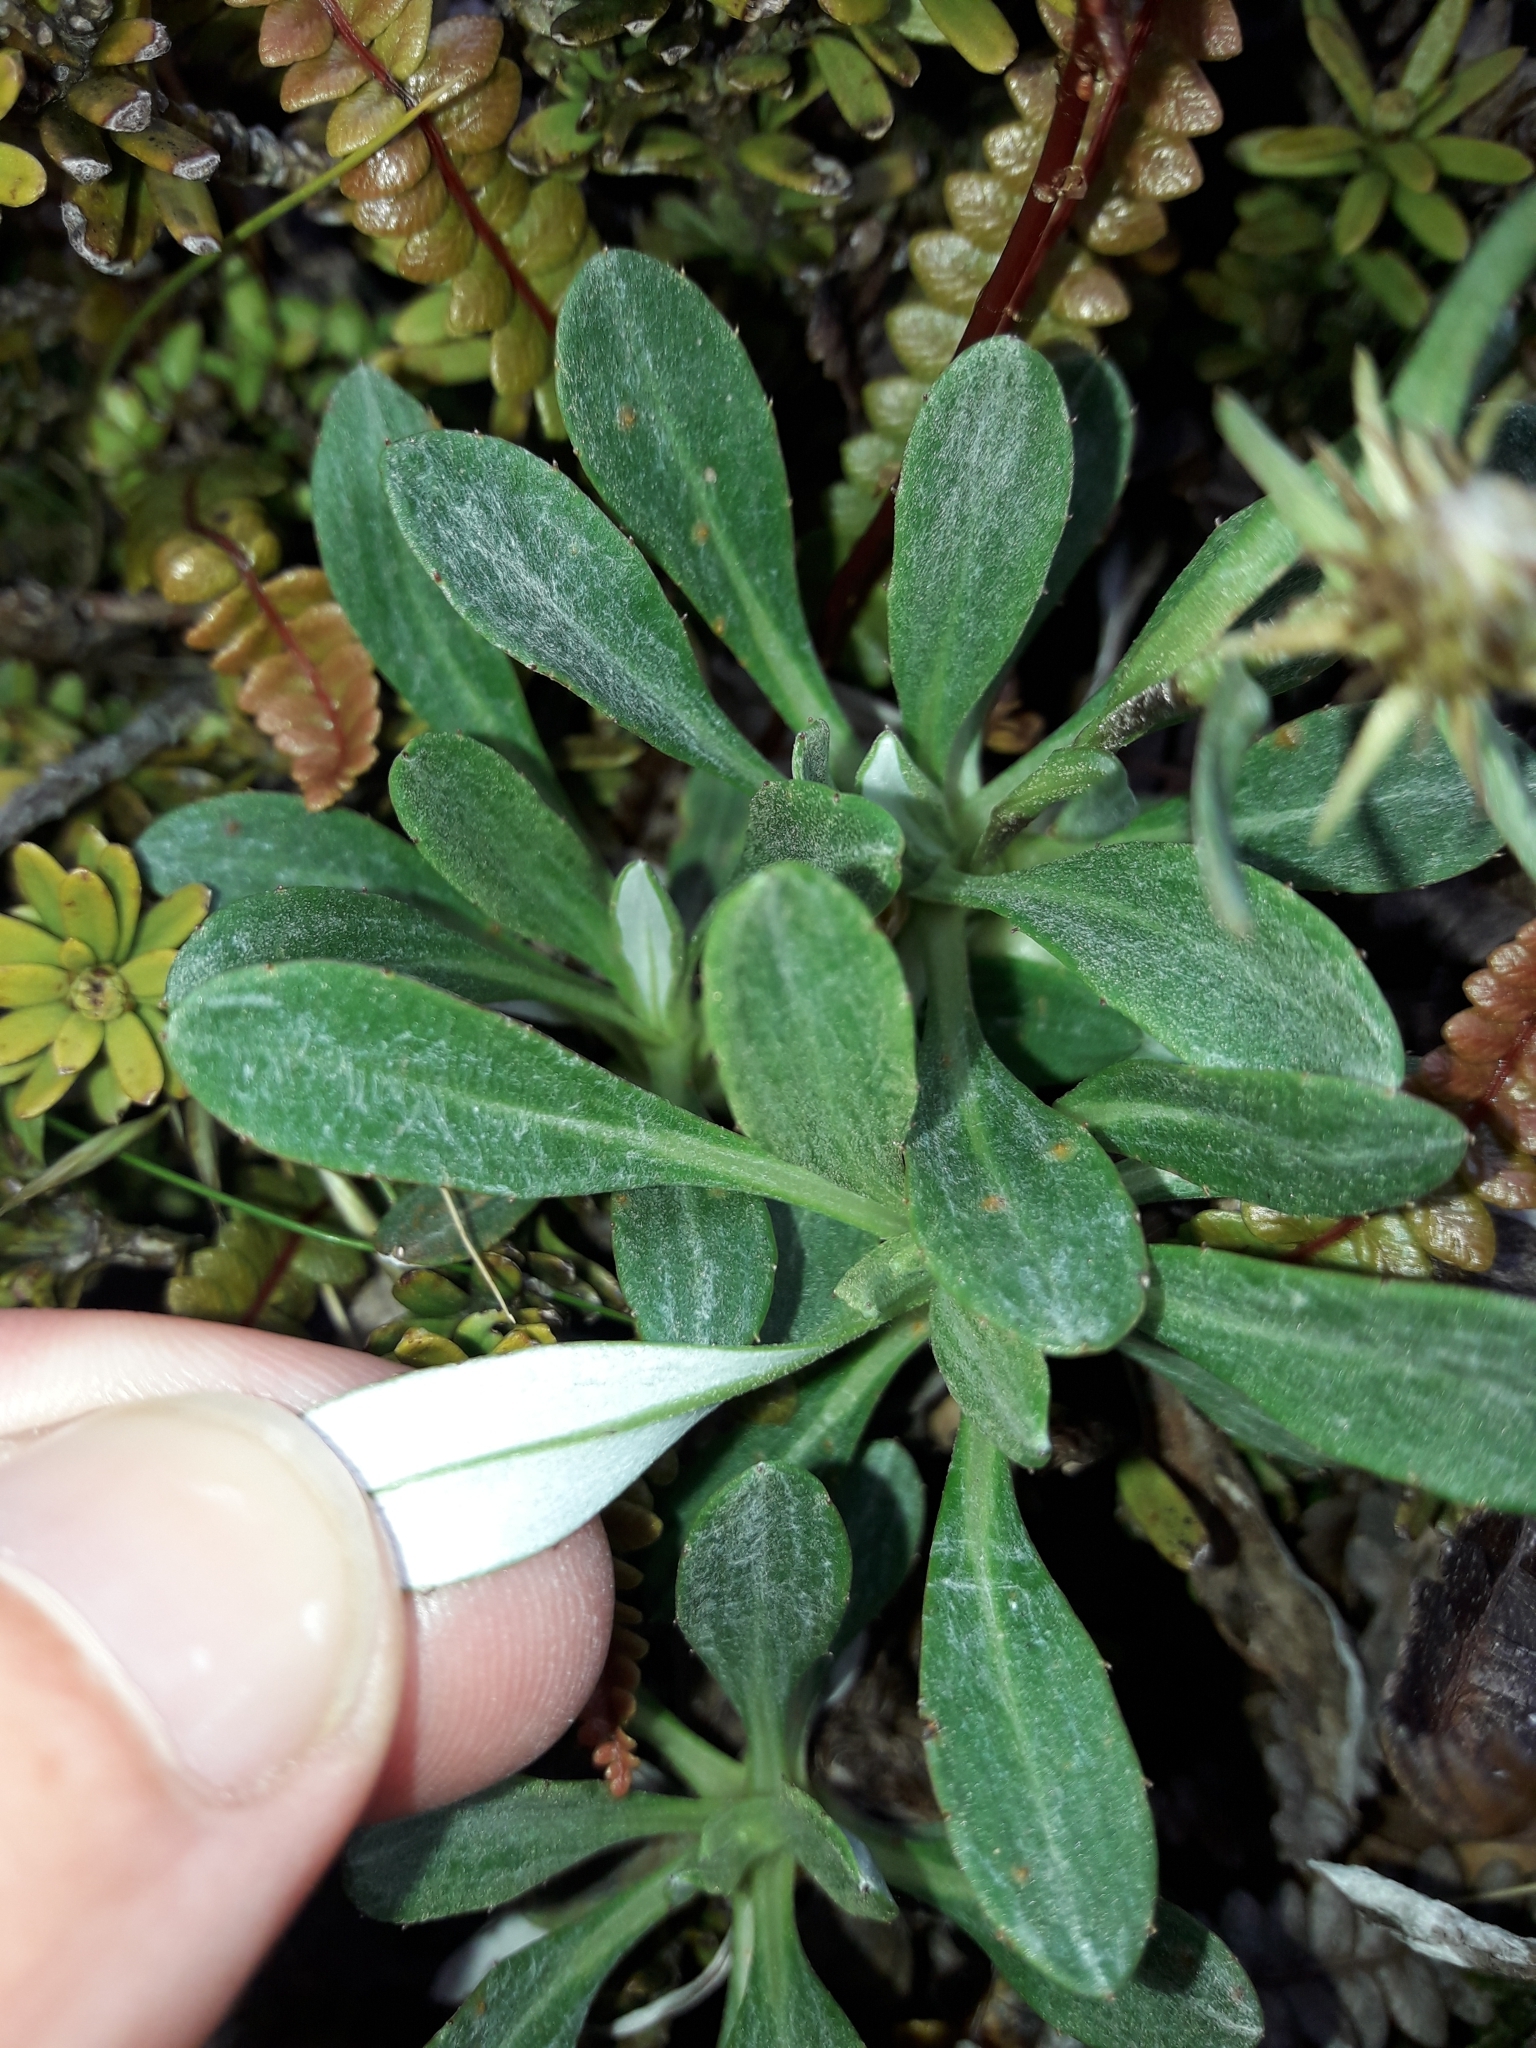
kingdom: Plantae
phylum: Tracheophyta
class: Magnoliopsida
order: Asterales
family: Asteraceae
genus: Celmisia
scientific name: Celmisia durietzii
